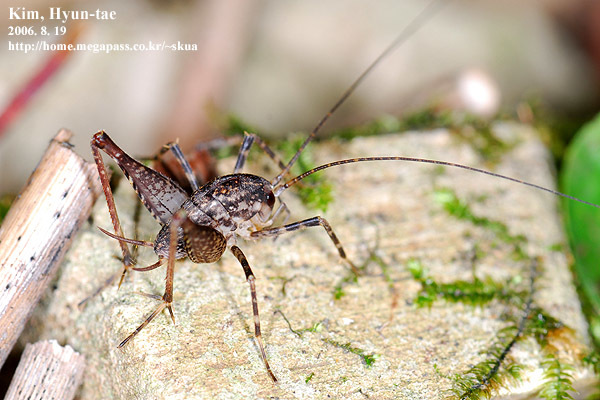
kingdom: Animalia
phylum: Arthropoda
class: Insecta
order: Orthoptera
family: Rhaphidophoridae
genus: Diestrammena
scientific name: Diestrammena unicolor
